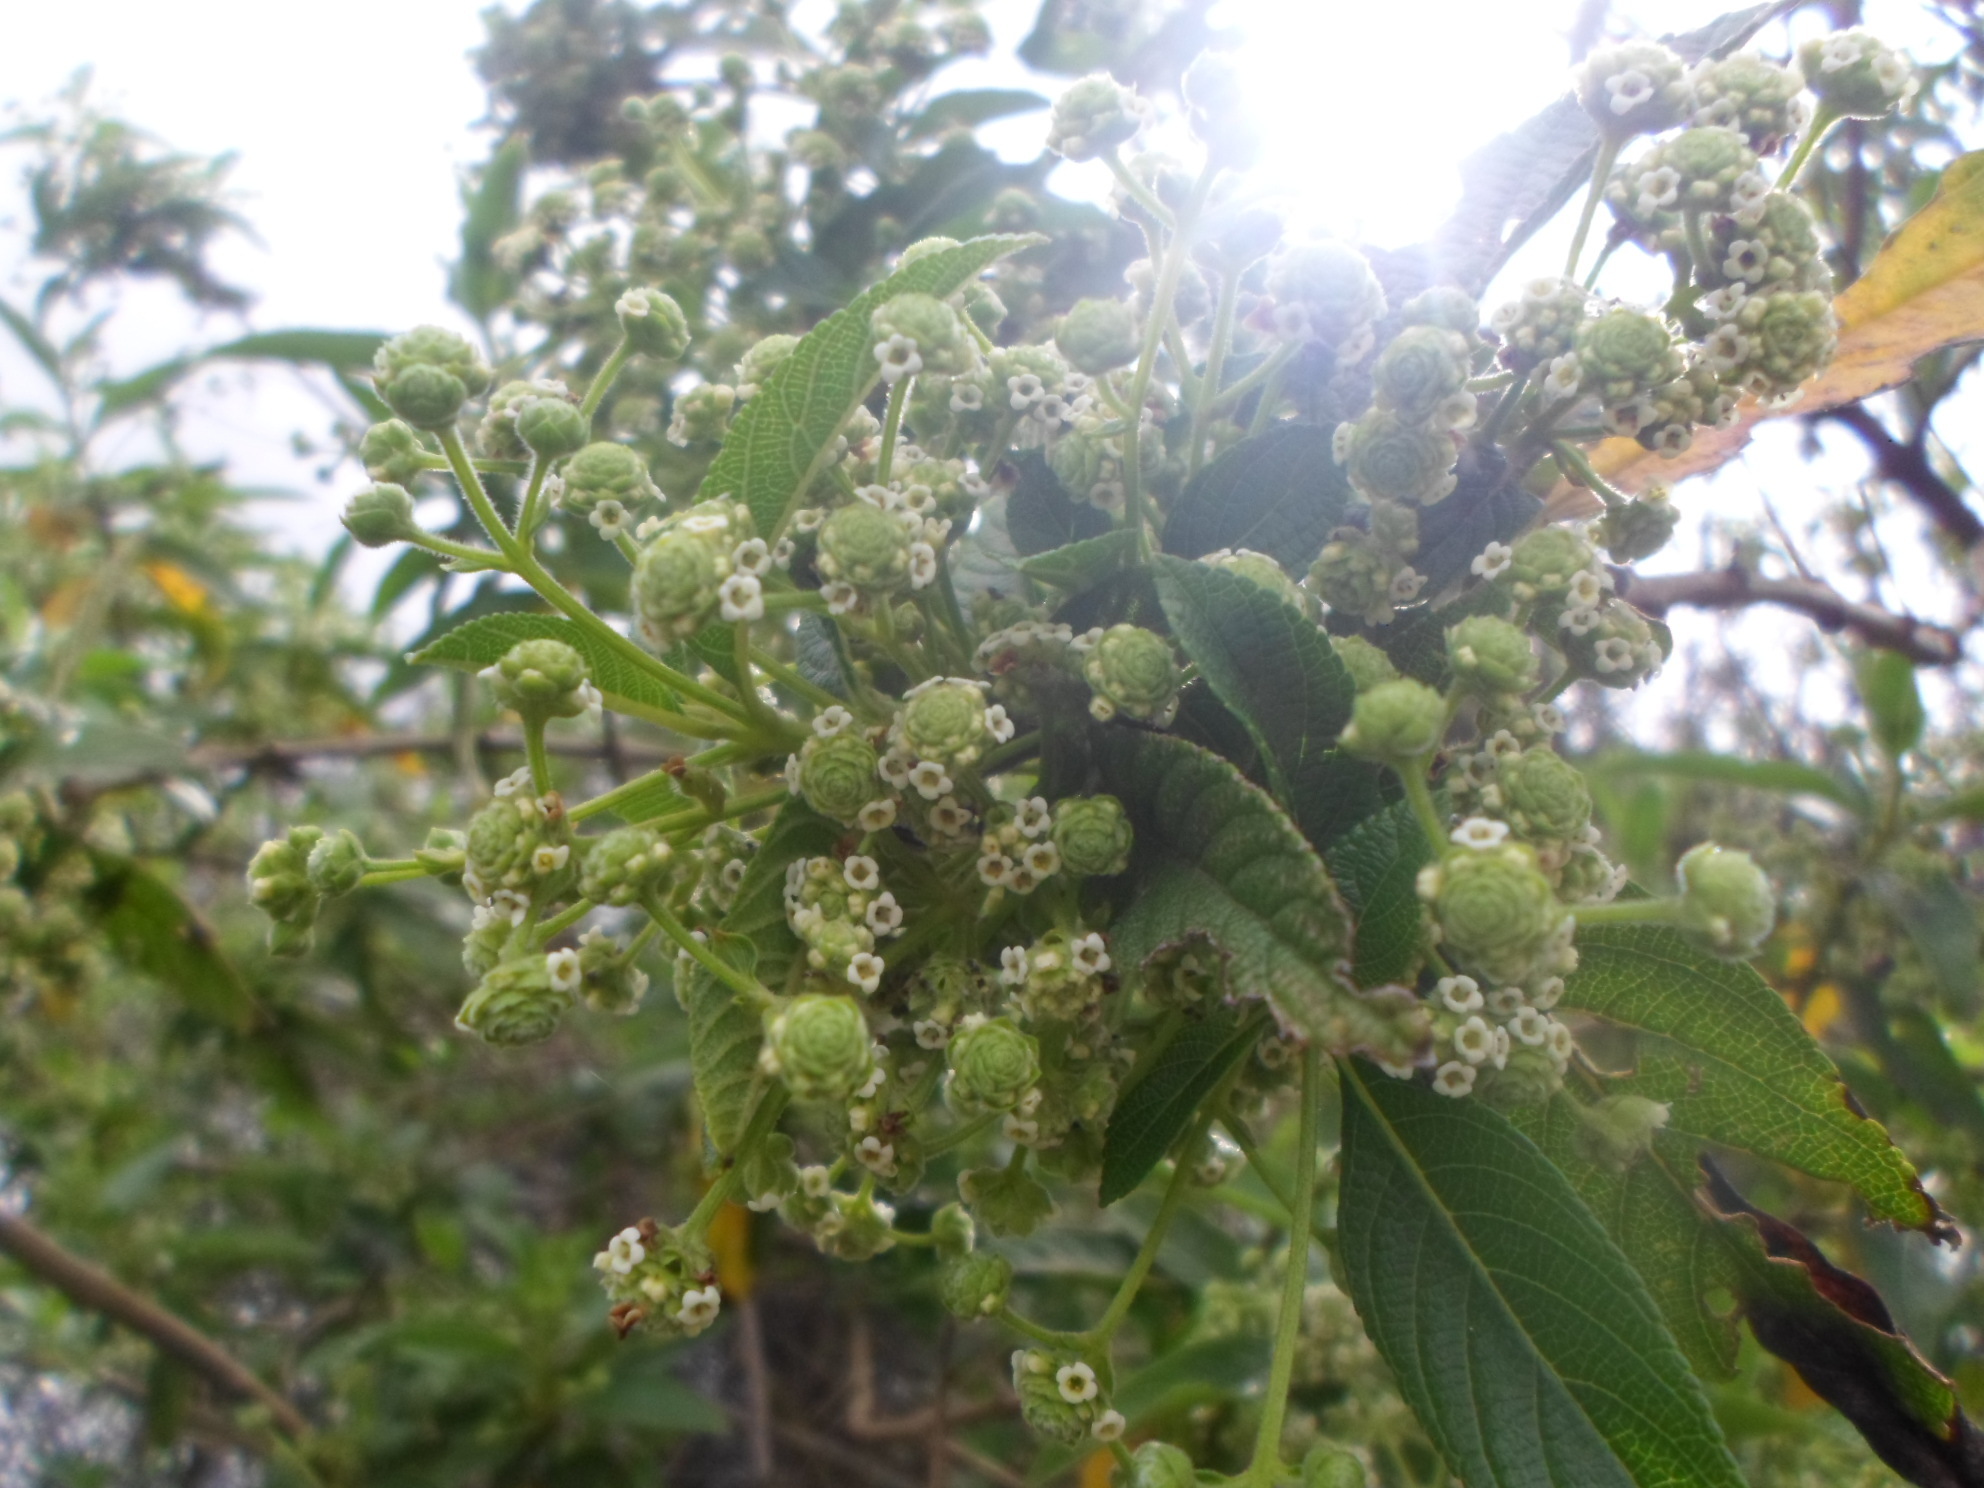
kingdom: Plantae
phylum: Tracheophyta
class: Magnoliopsida
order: Lamiales
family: Verbenaceae
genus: Lippia
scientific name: Lippia hirsuta
